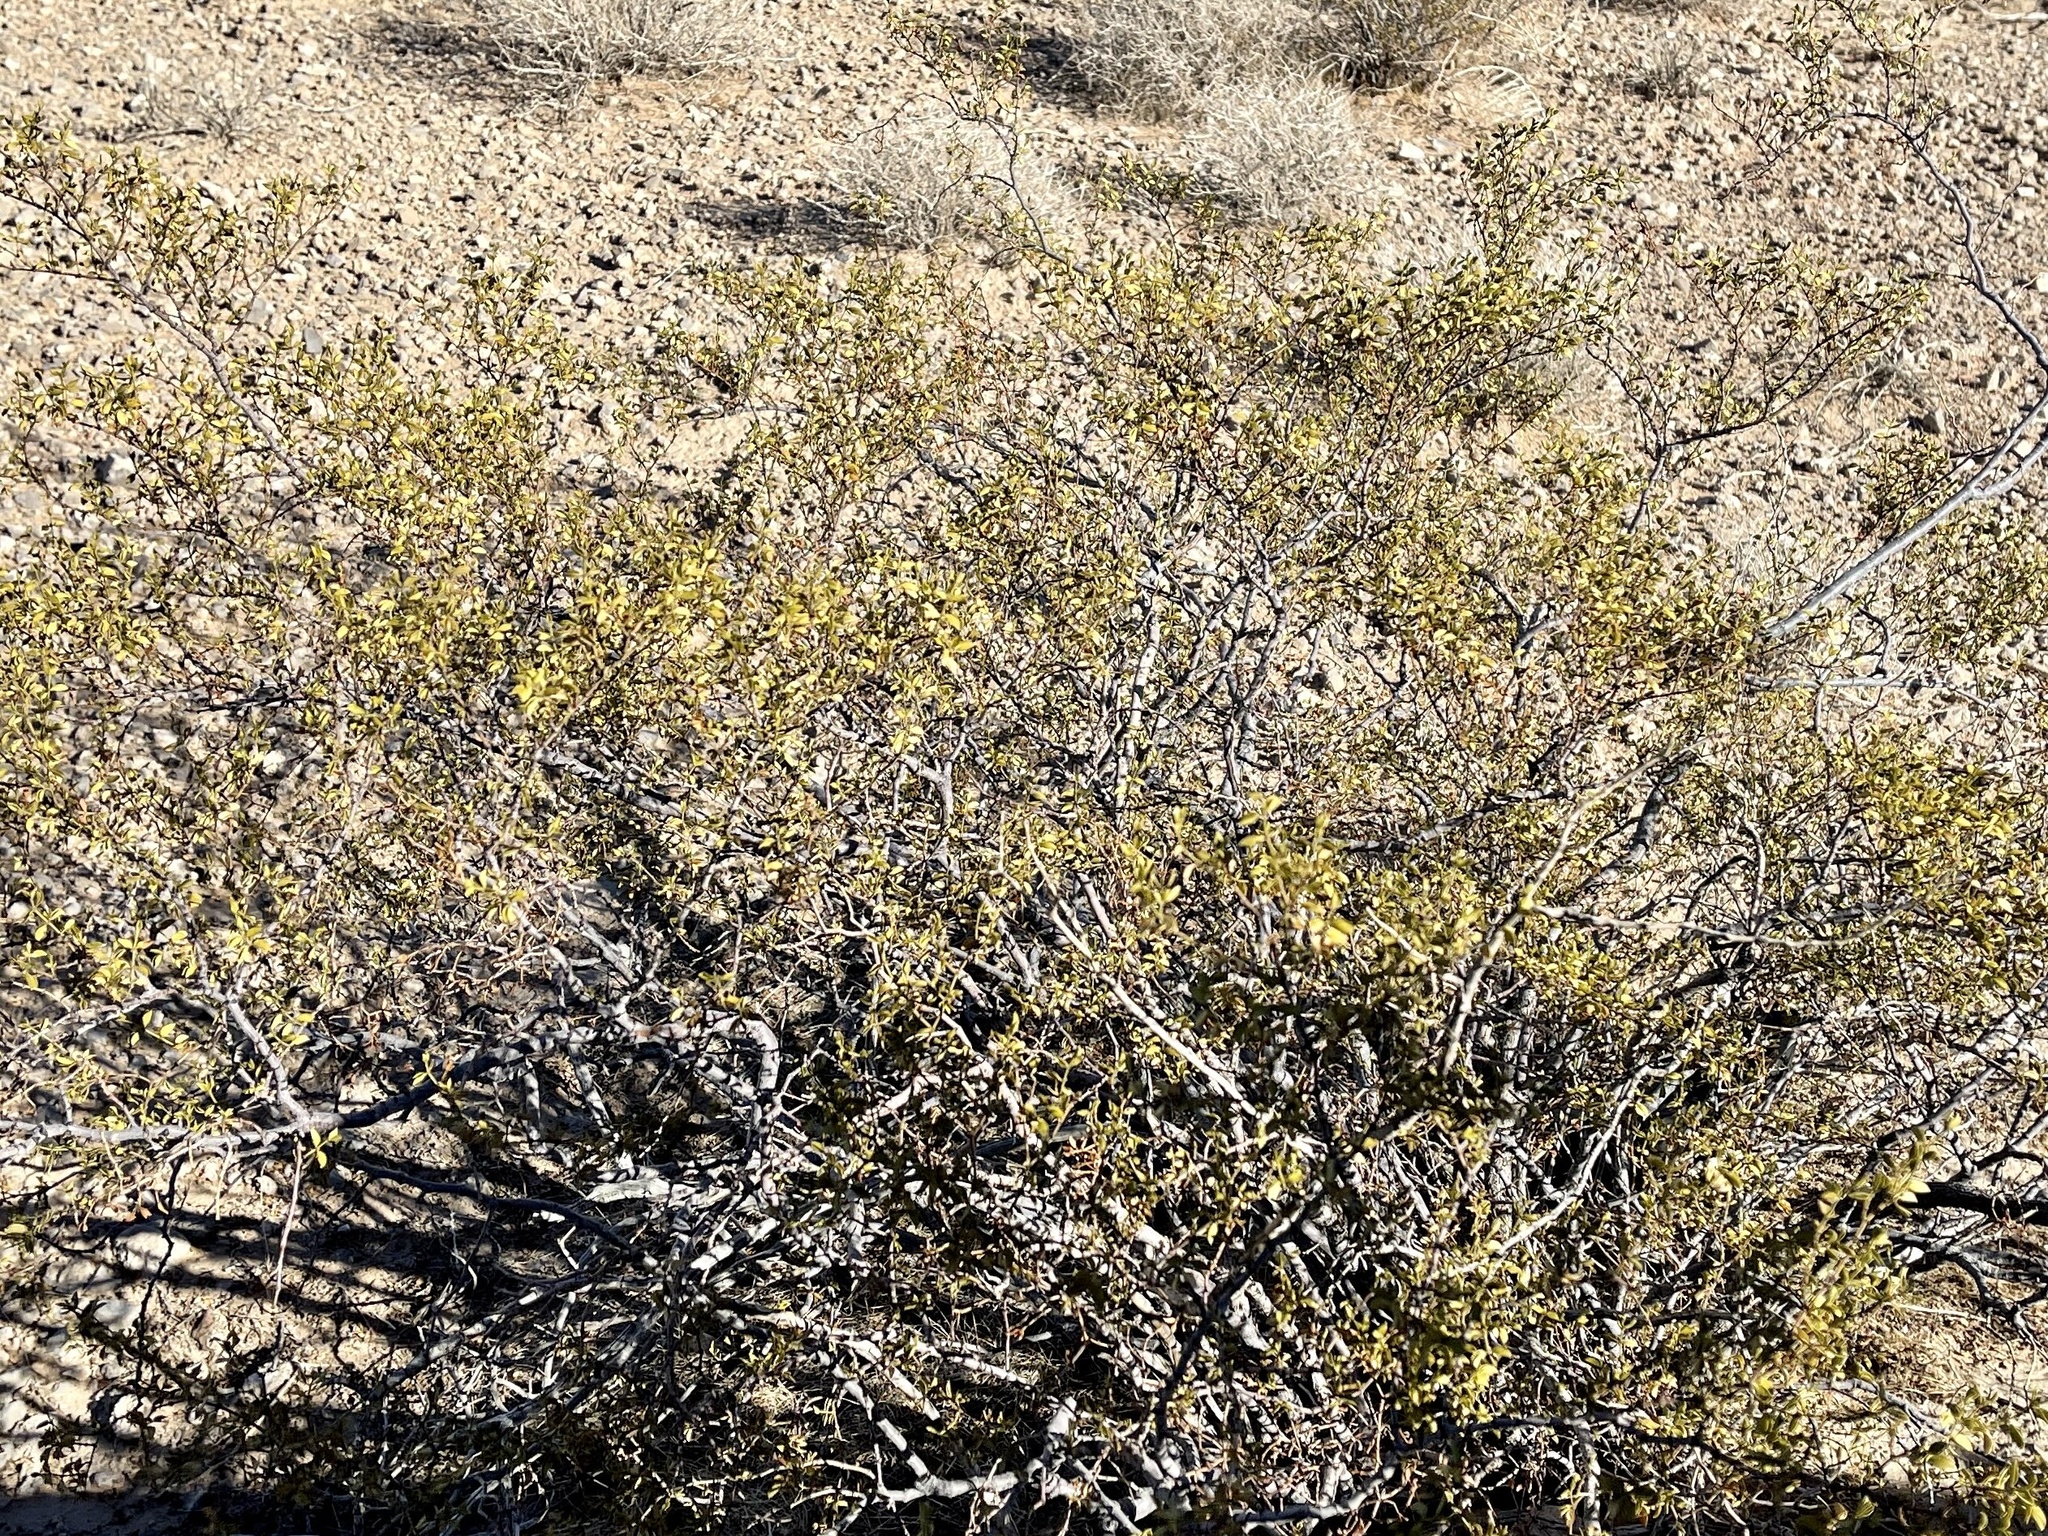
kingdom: Plantae
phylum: Tracheophyta
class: Magnoliopsida
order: Zygophyllales
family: Zygophyllaceae
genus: Larrea
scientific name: Larrea tridentata
